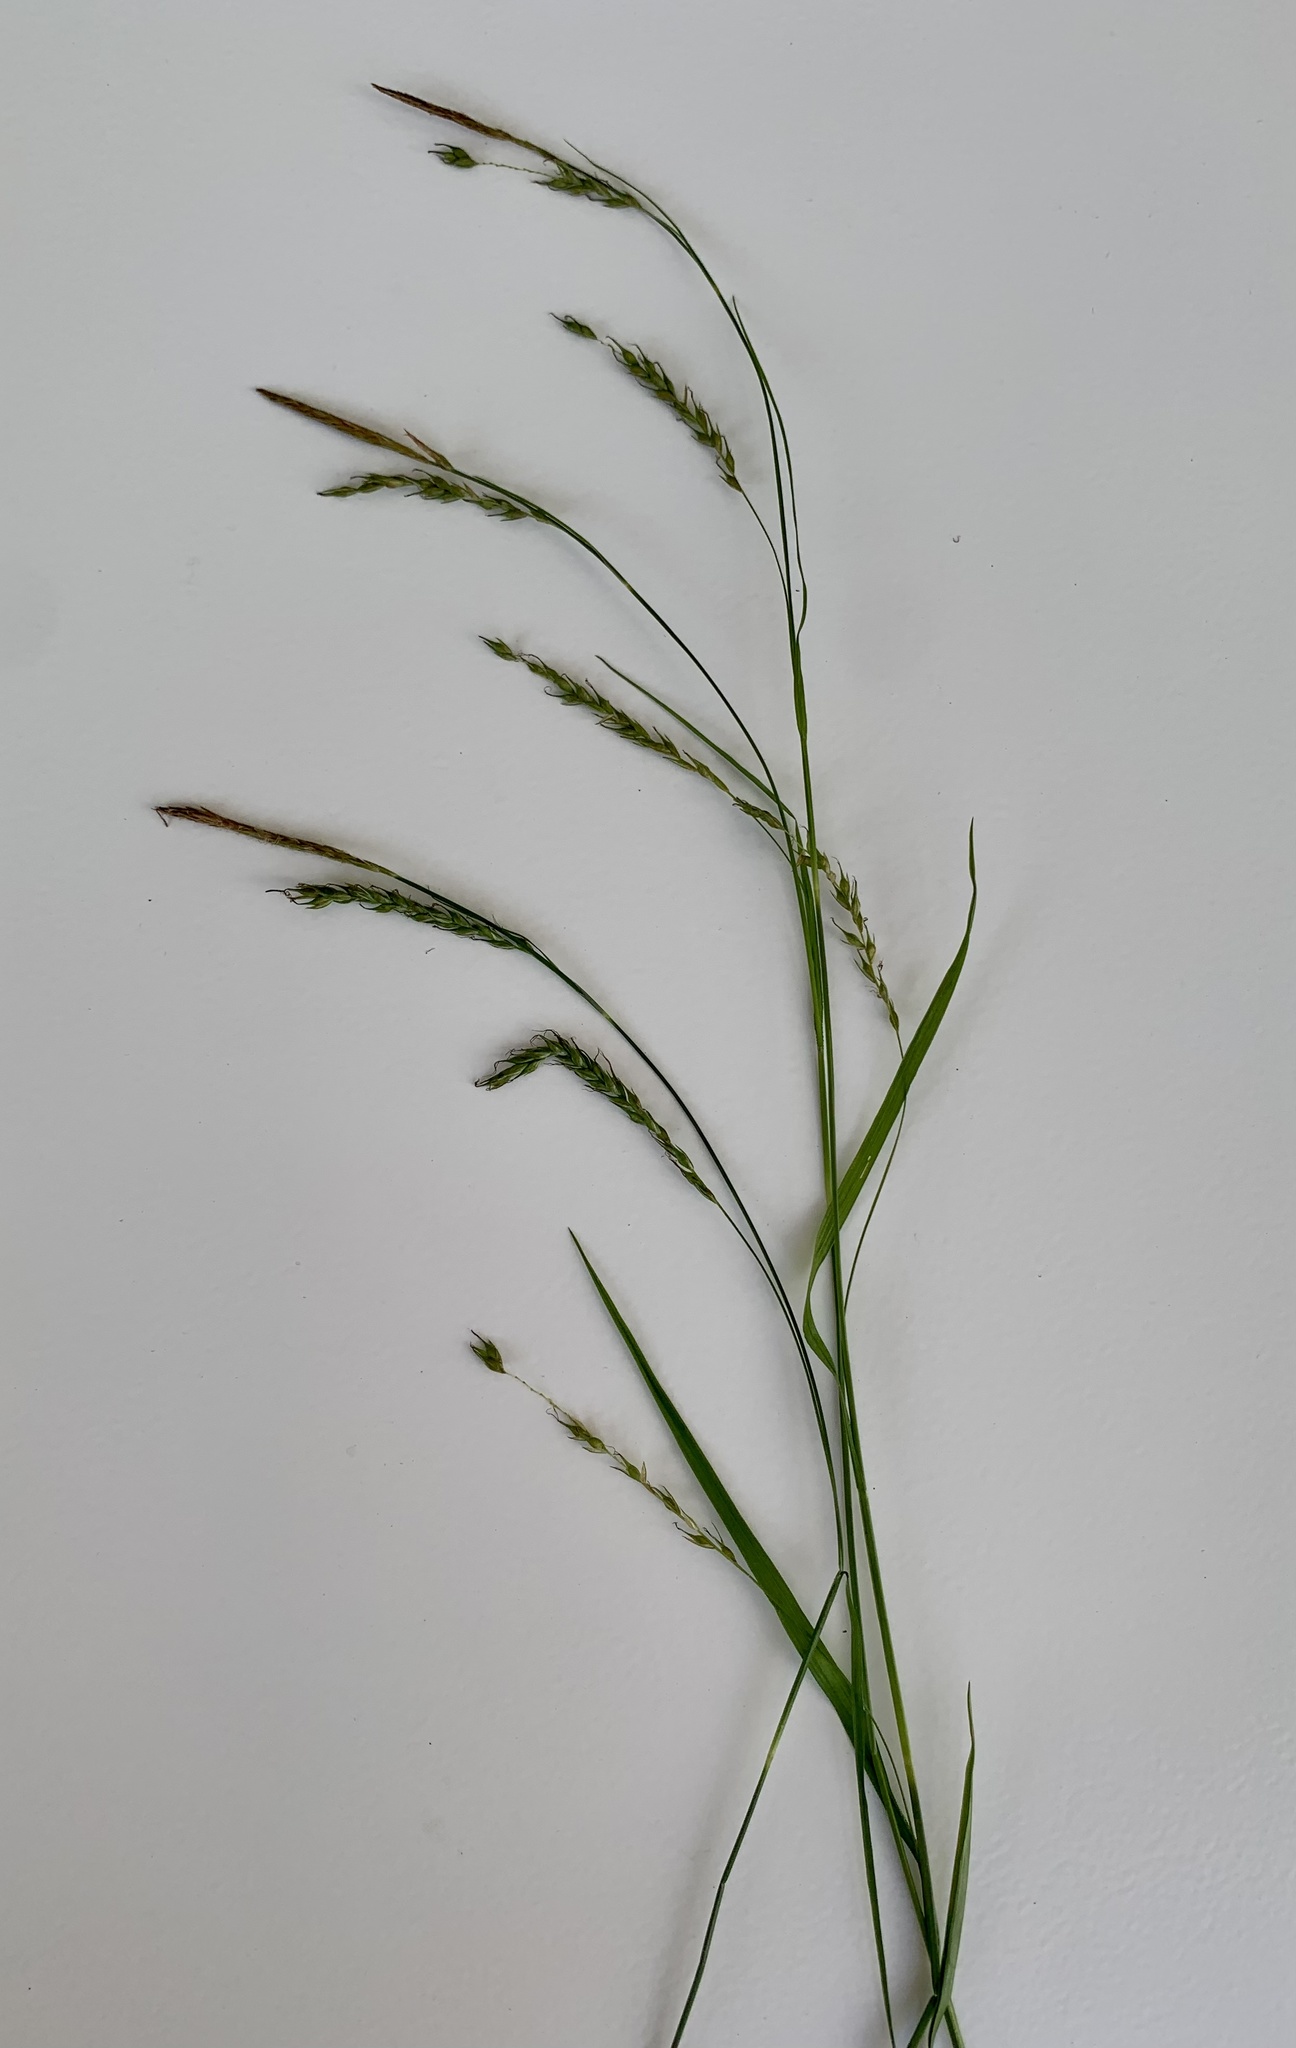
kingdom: Plantae
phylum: Tracheophyta
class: Liliopsida
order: Poales
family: Cyperaceae
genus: Carex
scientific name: Carex sylvatica
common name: Wood-sedge
